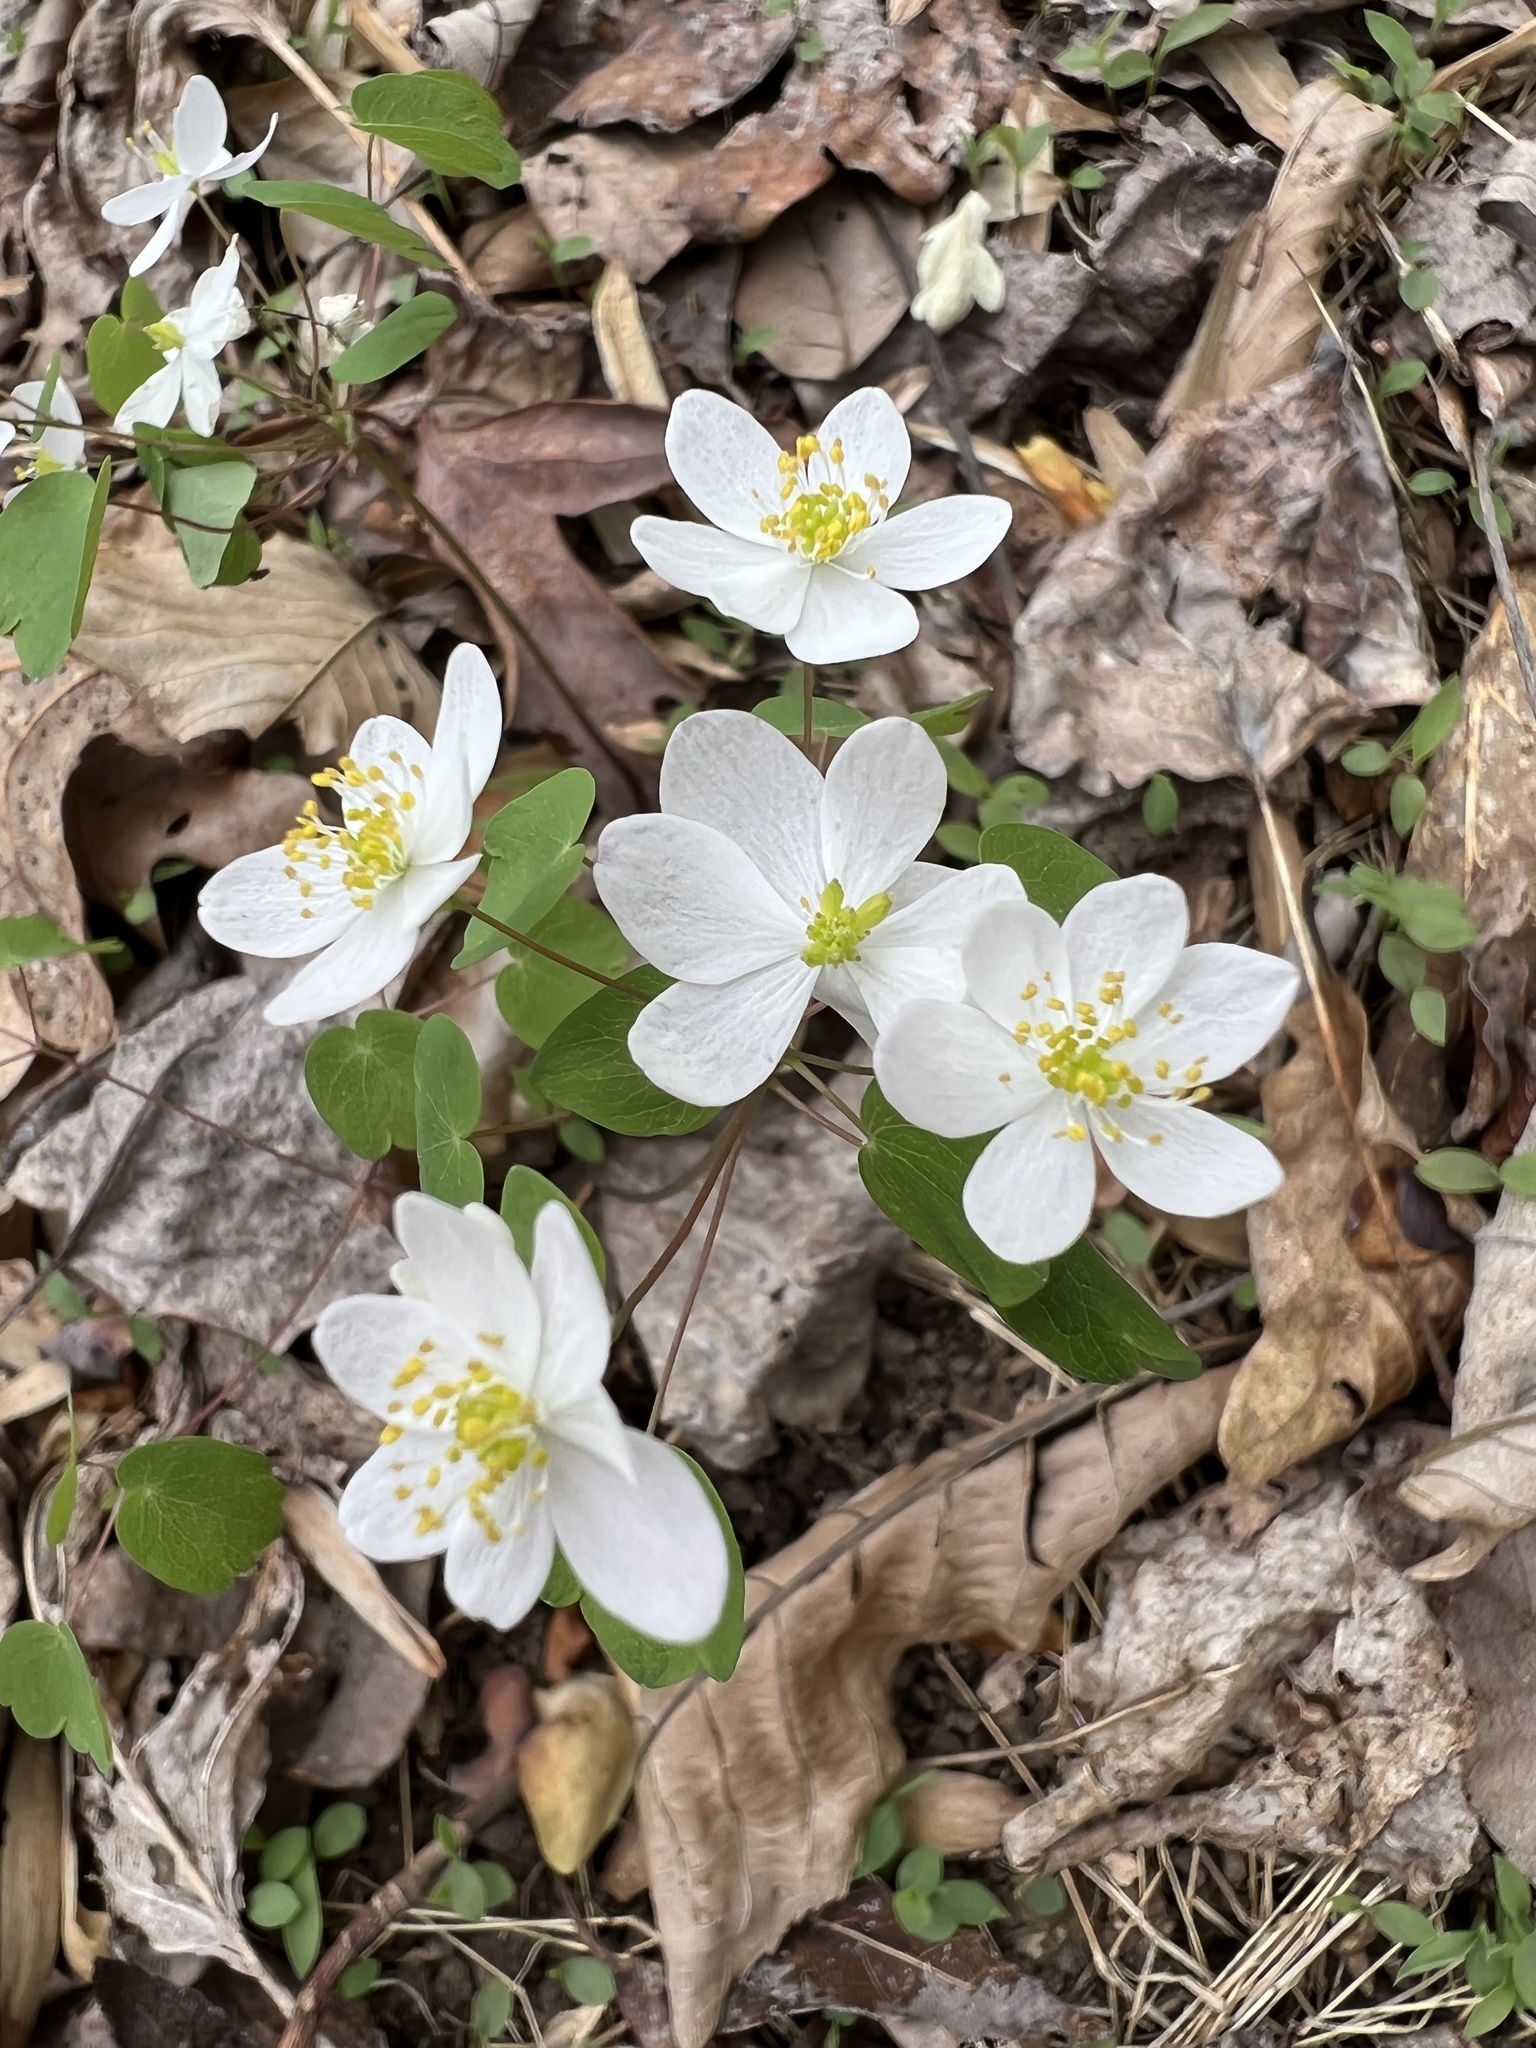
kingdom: Plantae
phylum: Tracheophyta
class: Magnoliopsida
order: Ranunculales
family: Ranunculaceae
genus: Thalictrum
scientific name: Thalictrum thalictroides
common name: Rue-anemone
